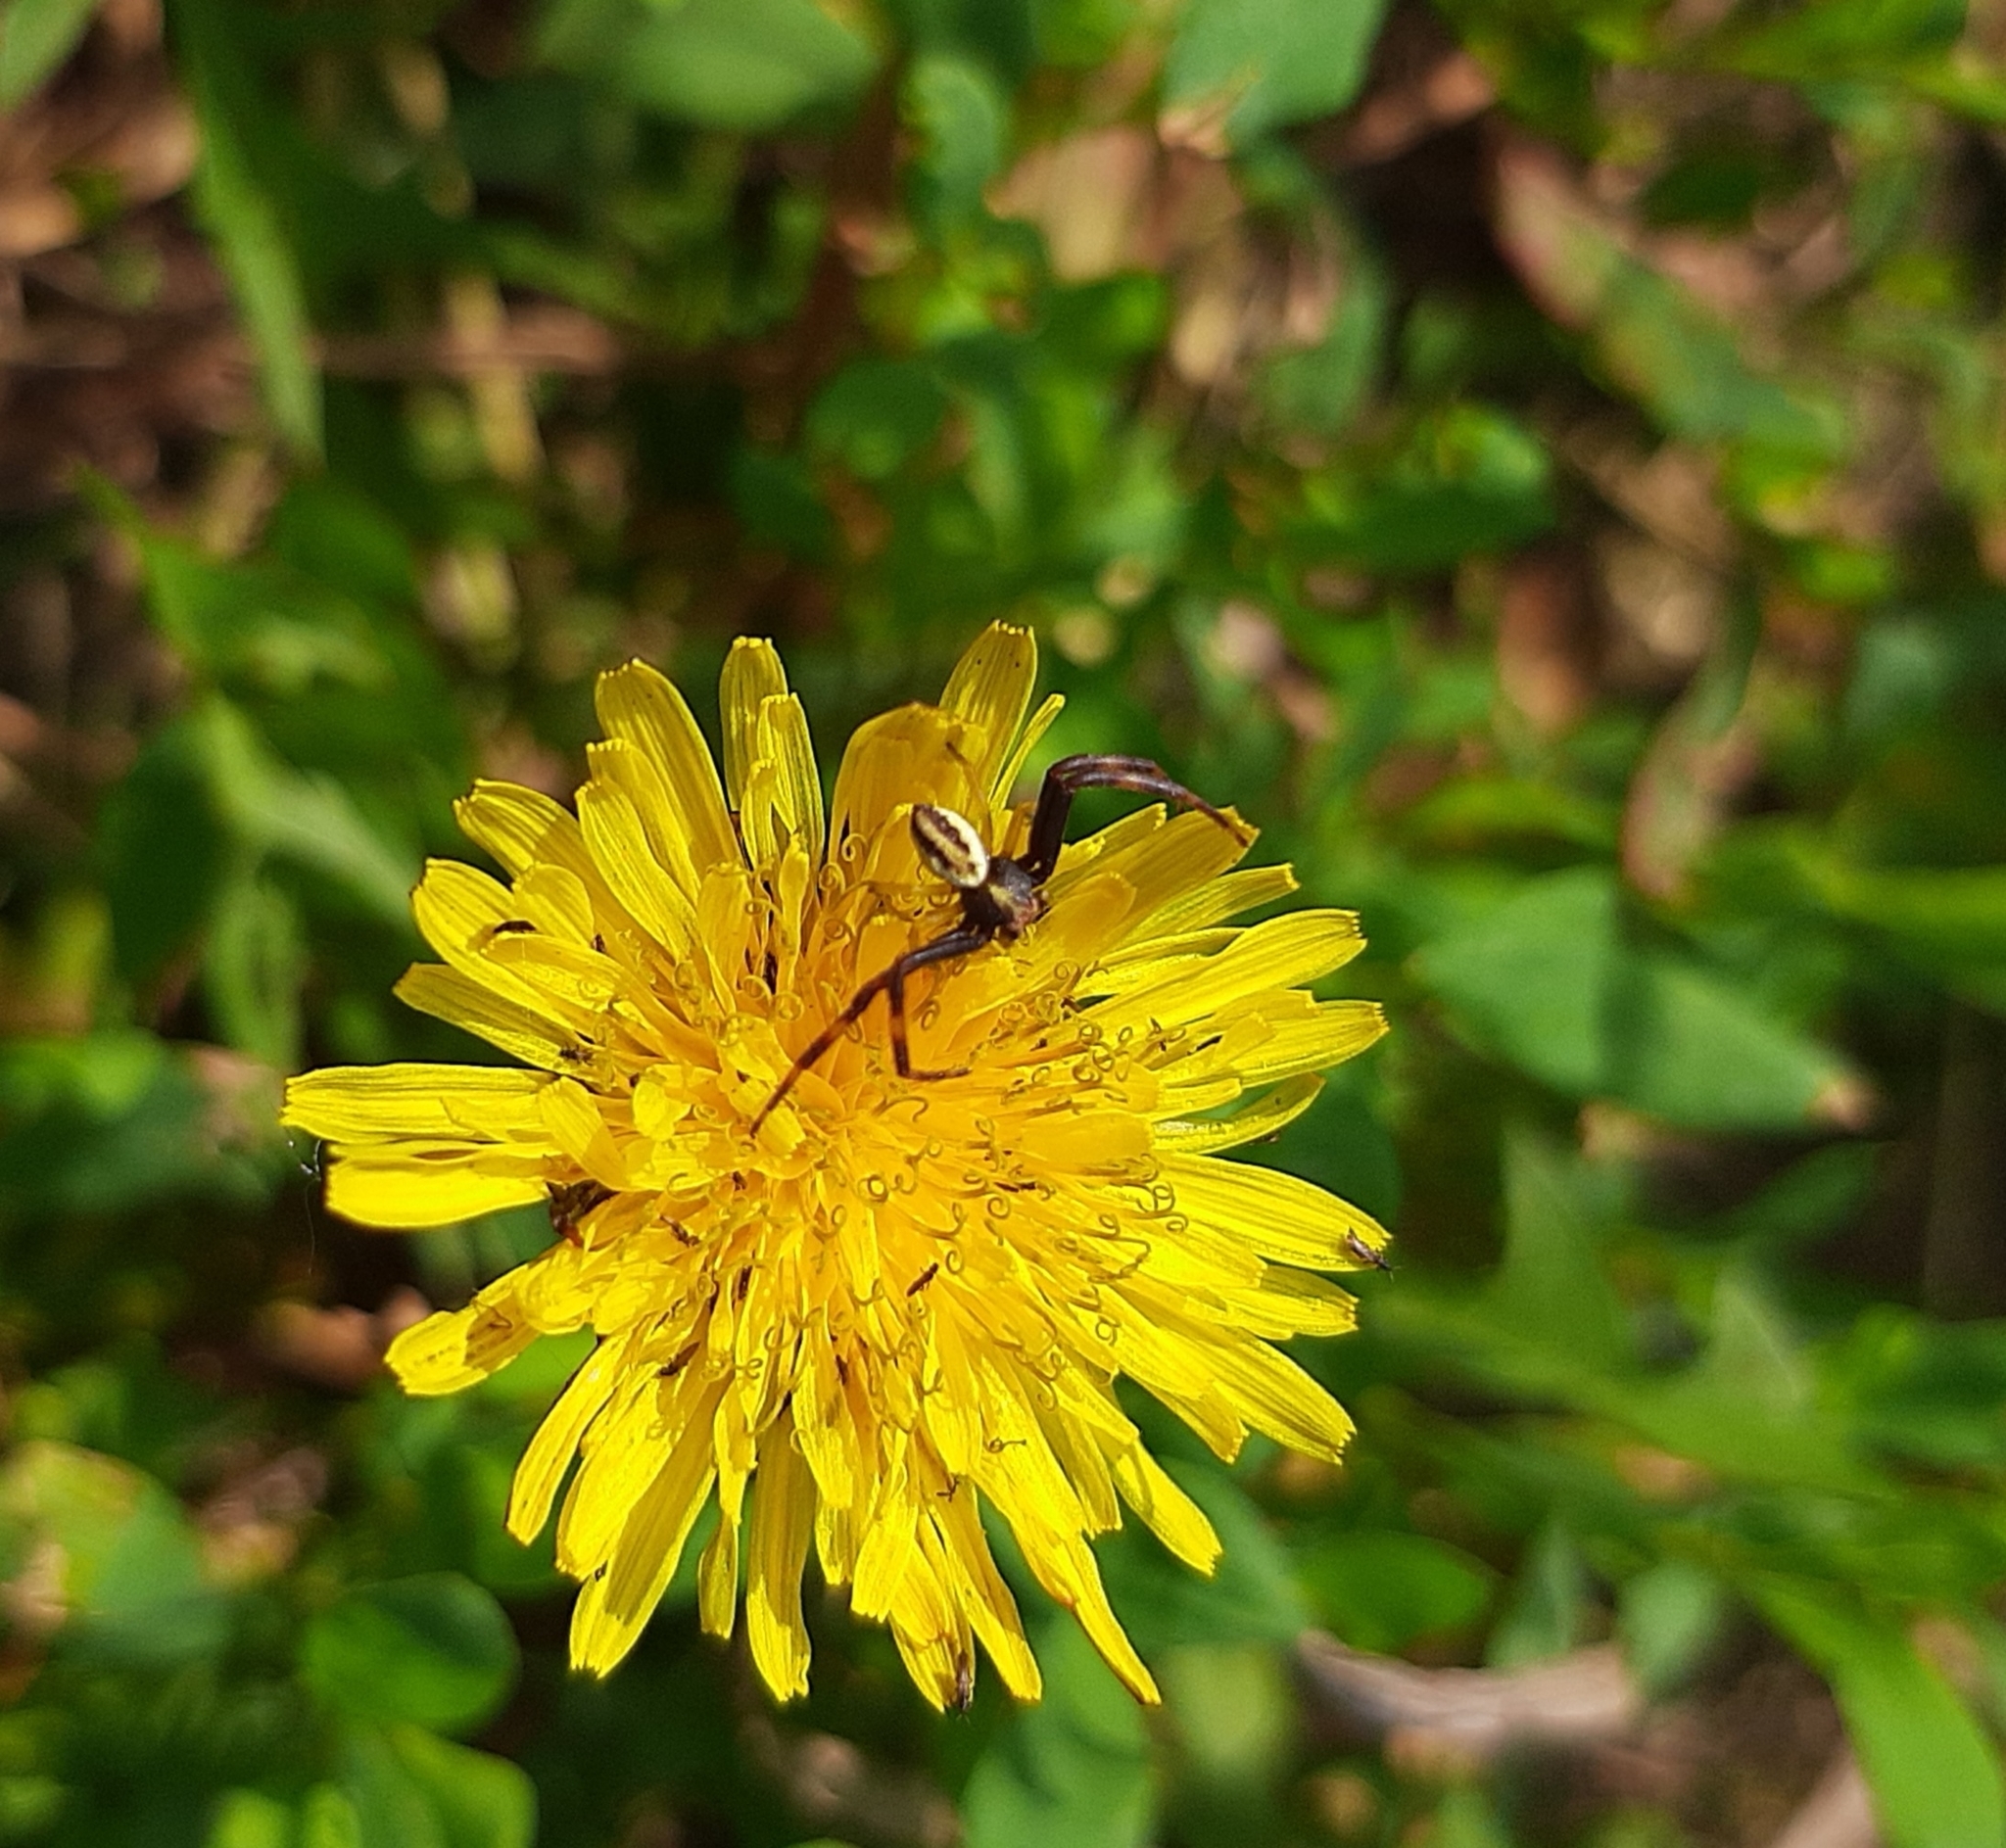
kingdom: Animalia
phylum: Arthropoda
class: Arachnida
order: Araneae
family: Thomisidae
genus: Misumena
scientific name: Misumena vatia
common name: Goldenrod crab spider
